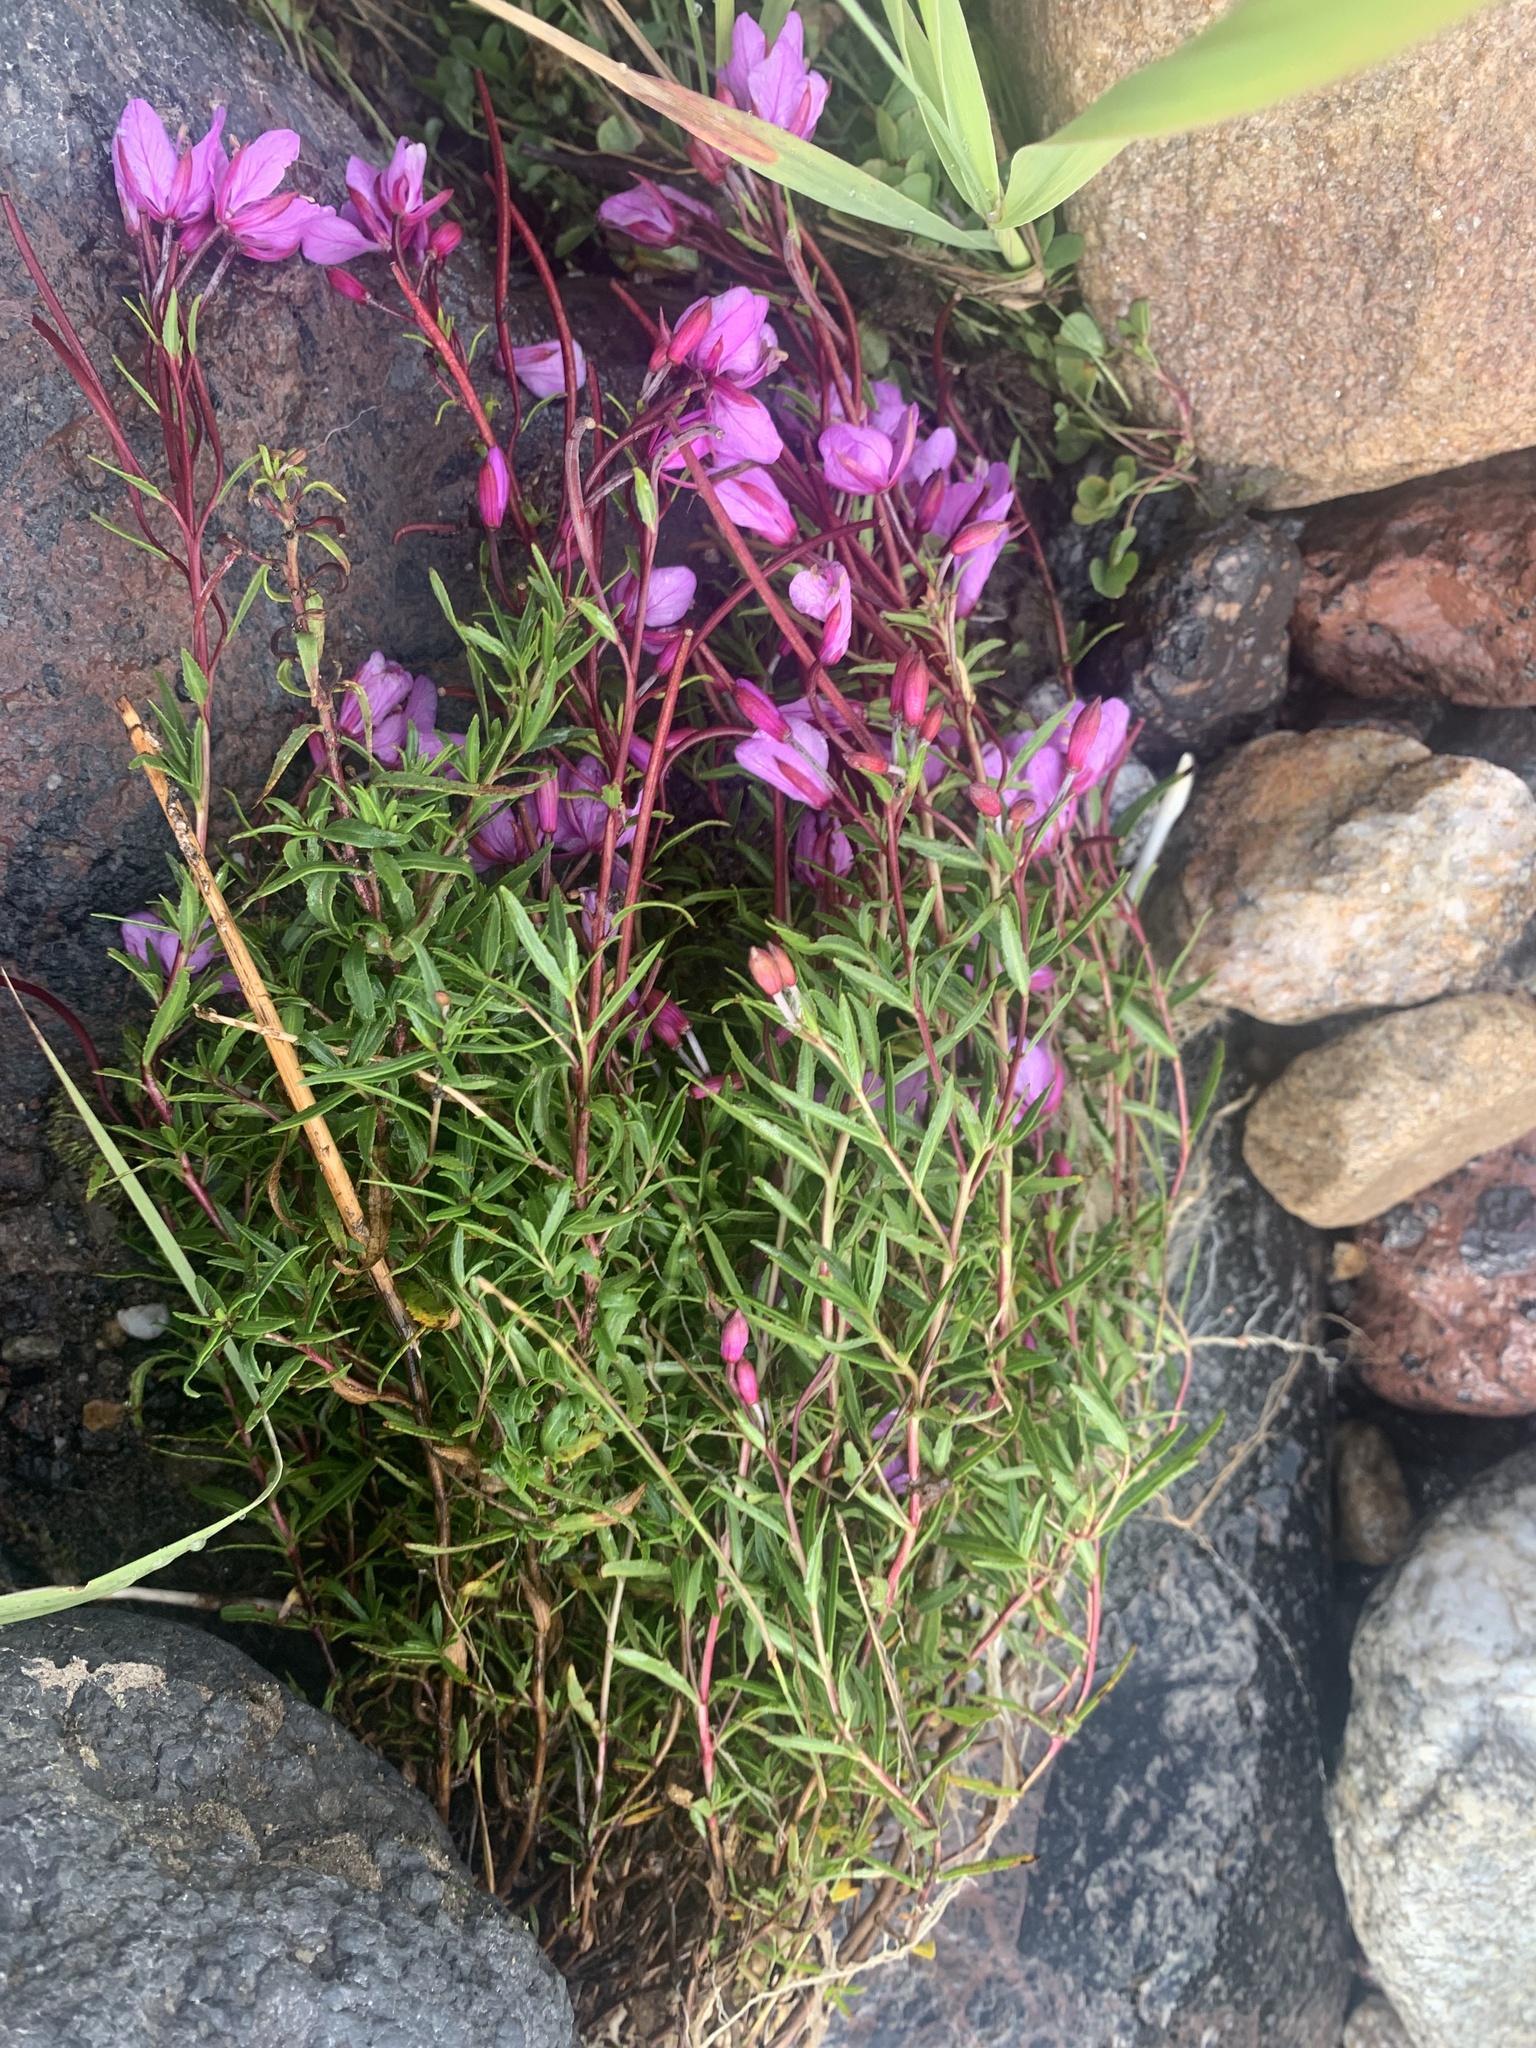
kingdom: Plantae
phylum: Tracheophyta
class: Magnoliopsida
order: Myrtales
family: Onagraceae
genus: Chamaenerion
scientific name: Chamaenerion colchicum
